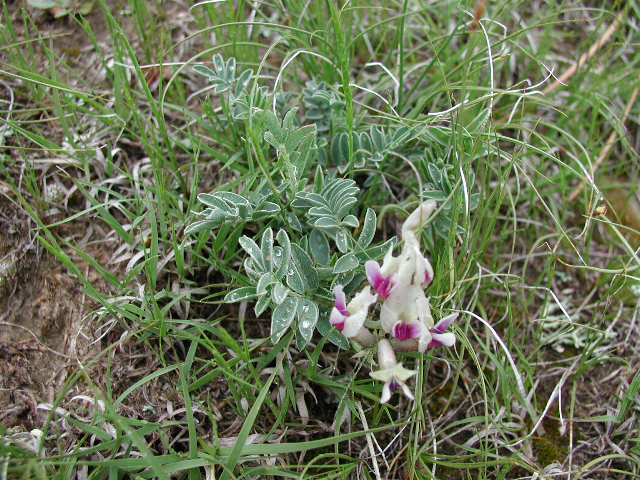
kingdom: Plantae
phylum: Tracheophyta
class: Magnoliopsida
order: Fabales
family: Fabaceae
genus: Astragalus
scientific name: Astragalus crassicarpus
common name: Ground-plum milk-vetch
